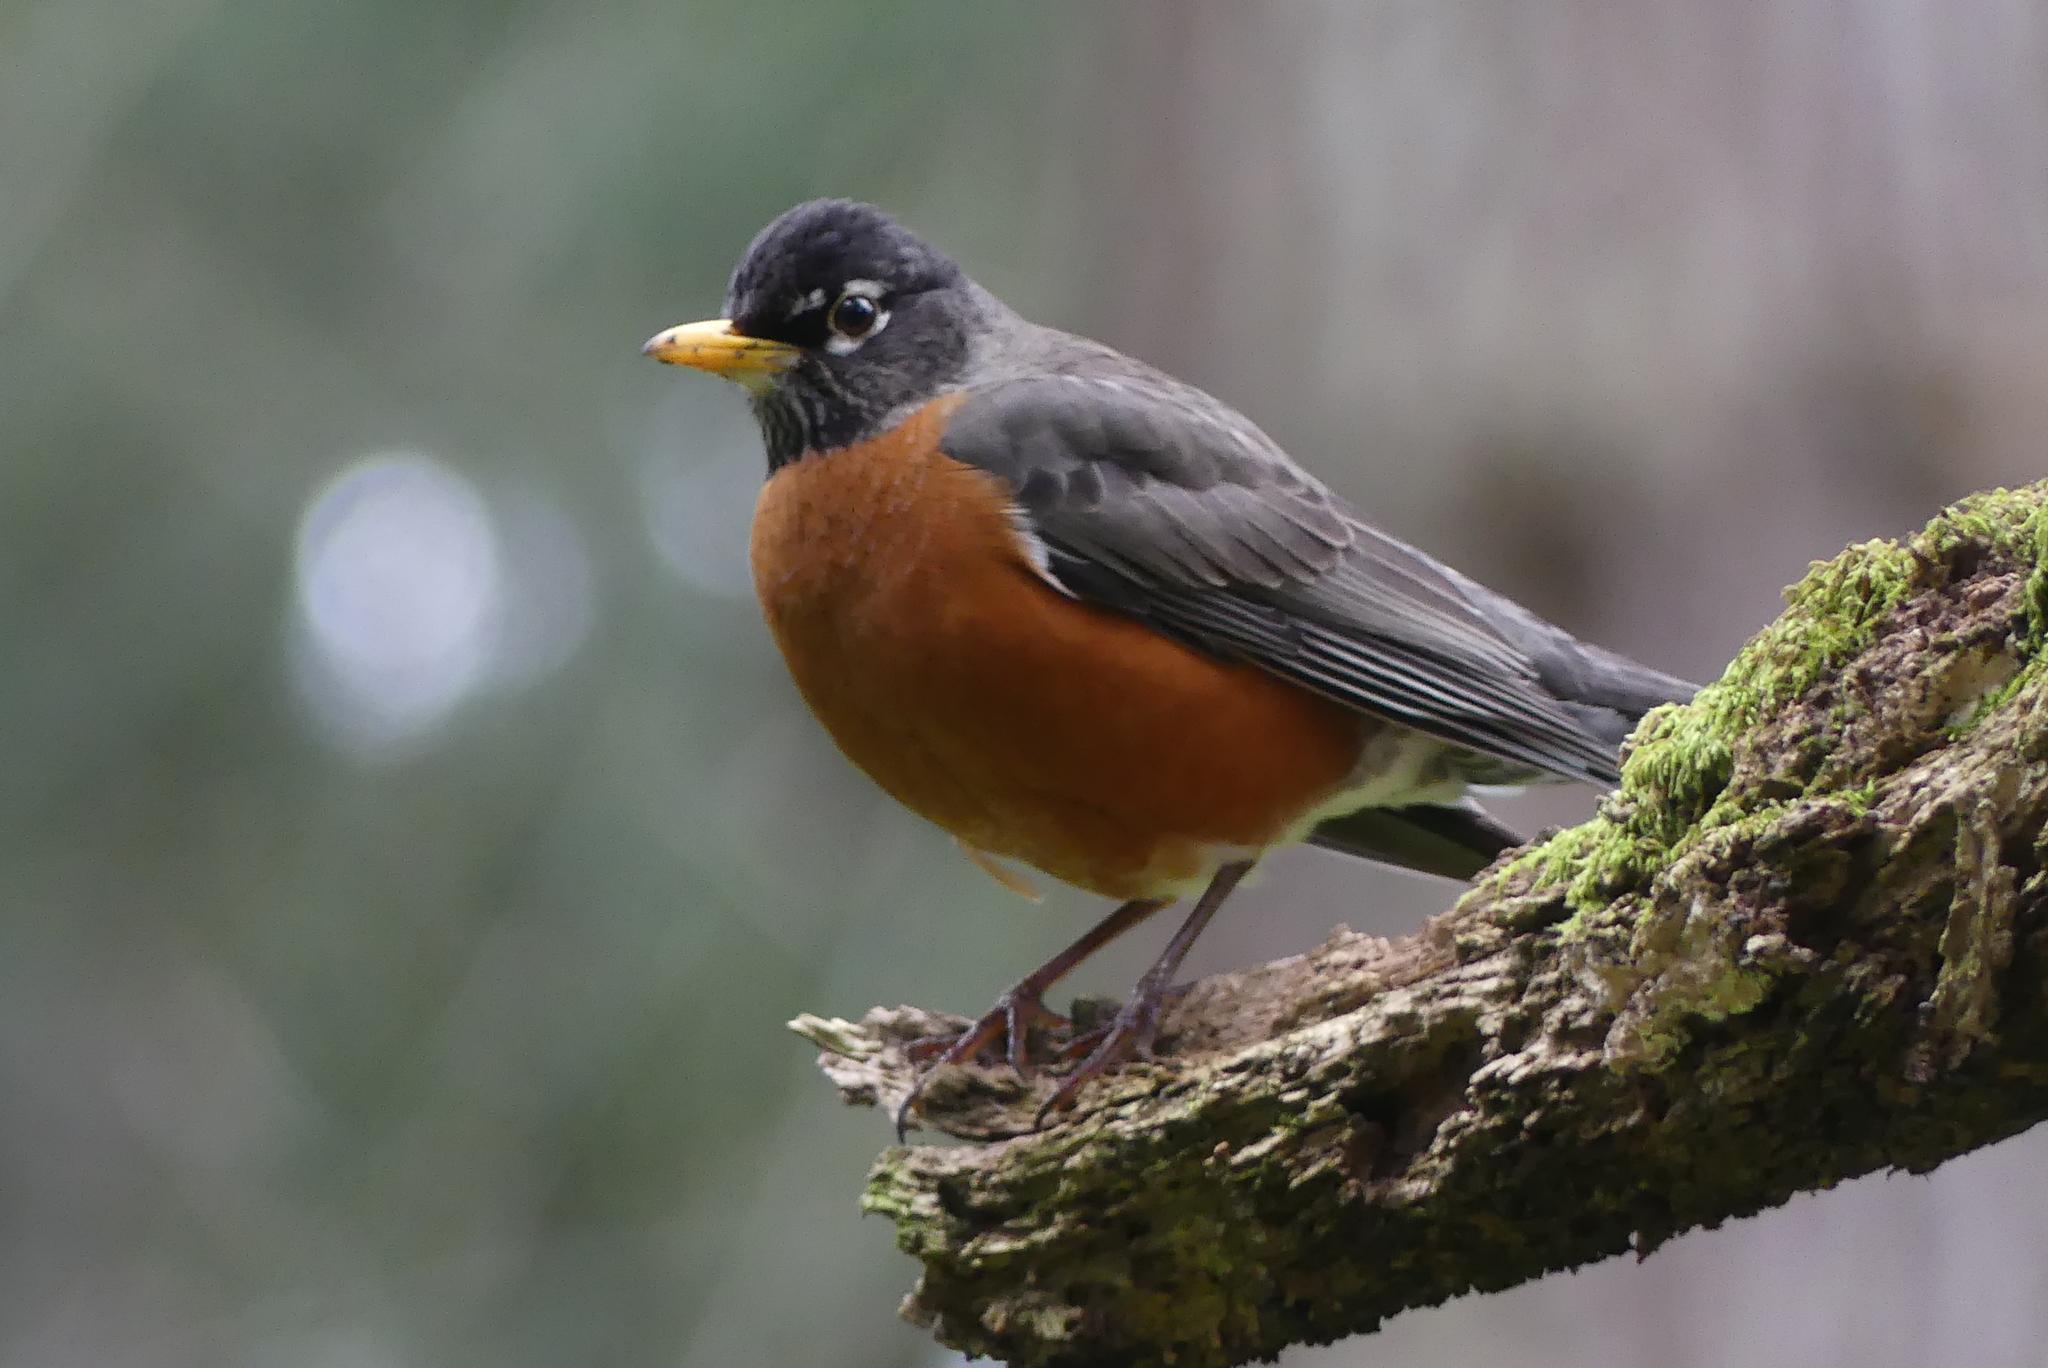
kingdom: Animalia
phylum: Chordata
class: Aves
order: Passeriformes
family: Turdidae
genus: Turdus
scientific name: Turdus migratorius
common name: American robin
